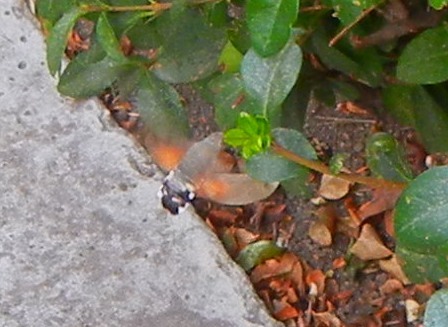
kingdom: Animalia
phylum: Arthropoda
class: Insecta
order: Lepidoptera
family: Sphingidae
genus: Macroglossum
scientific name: Macroglossum stellatarum
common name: Humming-bird hawk-moth
